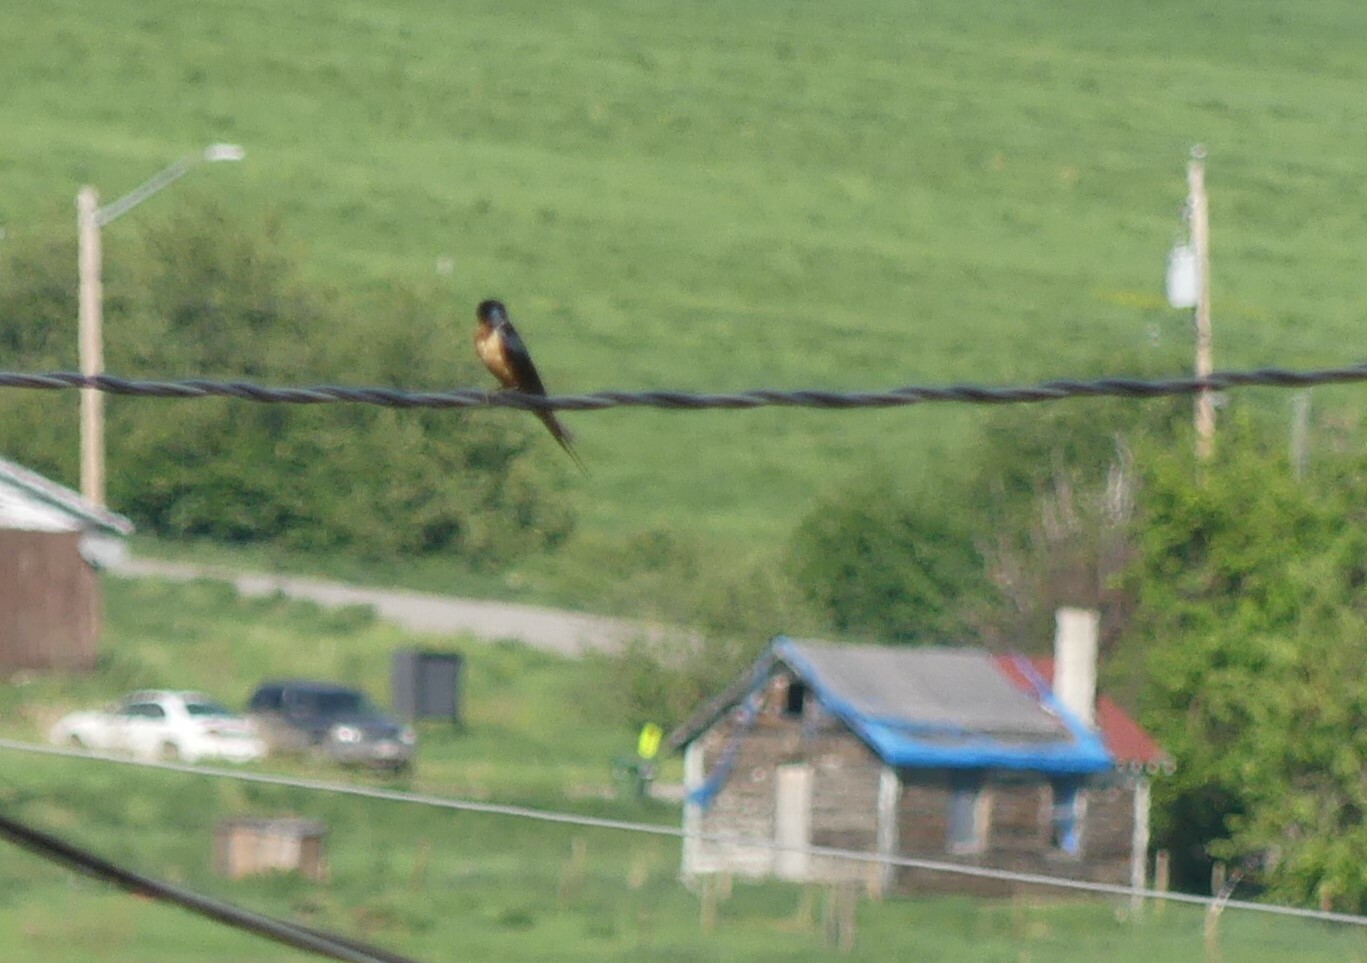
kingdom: Animalia
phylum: Chordata
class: Aves
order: Passeriformes
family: Hirundinidae
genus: Hirundo
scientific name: Hirundo rustica
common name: Barn swallow
